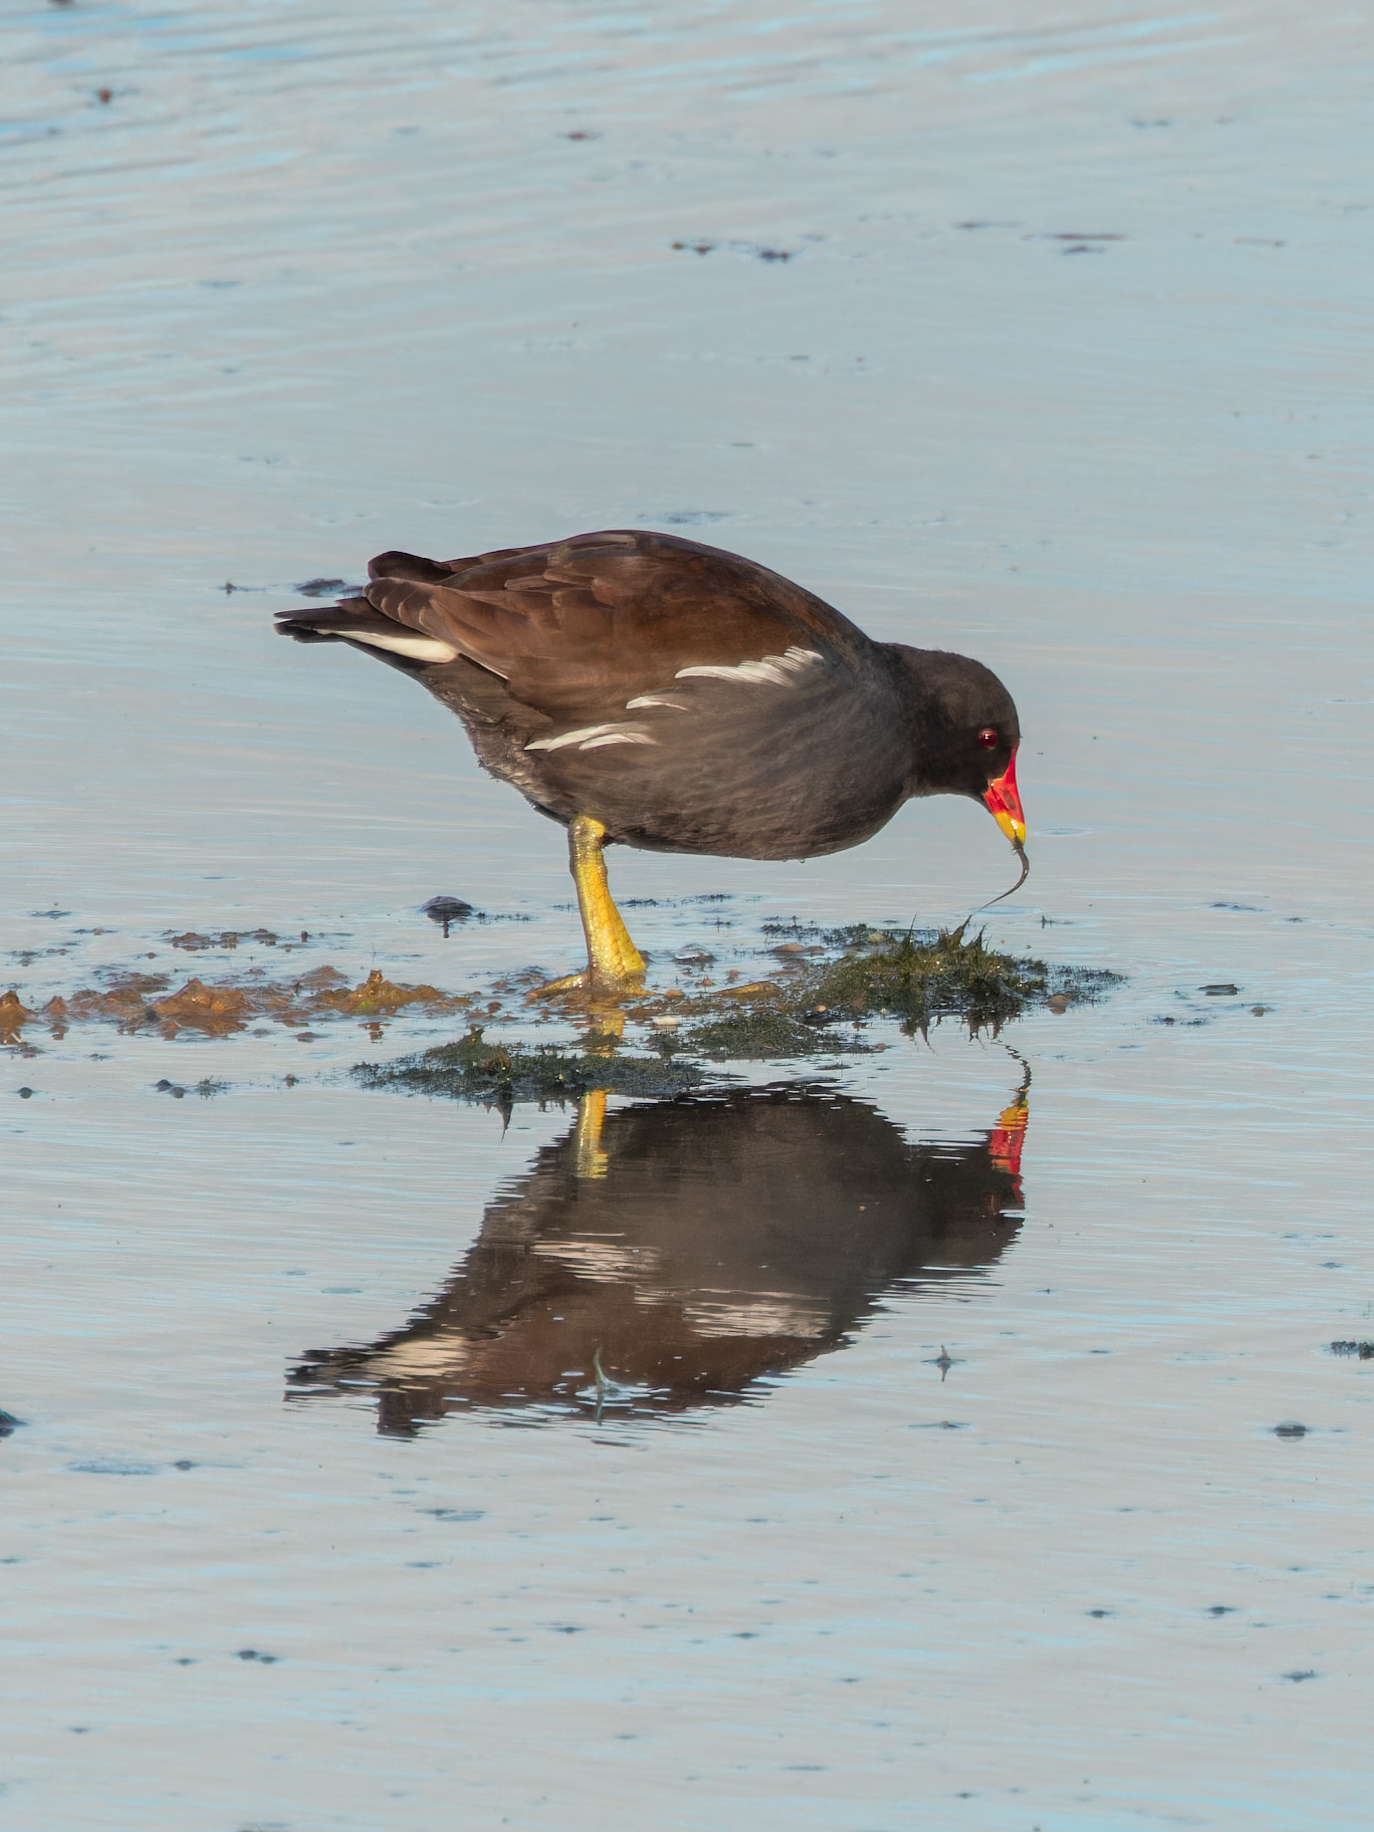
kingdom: Animalia
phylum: Chordata
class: Aves
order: Gruiformes
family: Rallidae
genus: Gallinula
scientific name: Gallinula chloropus
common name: Common moorhen
